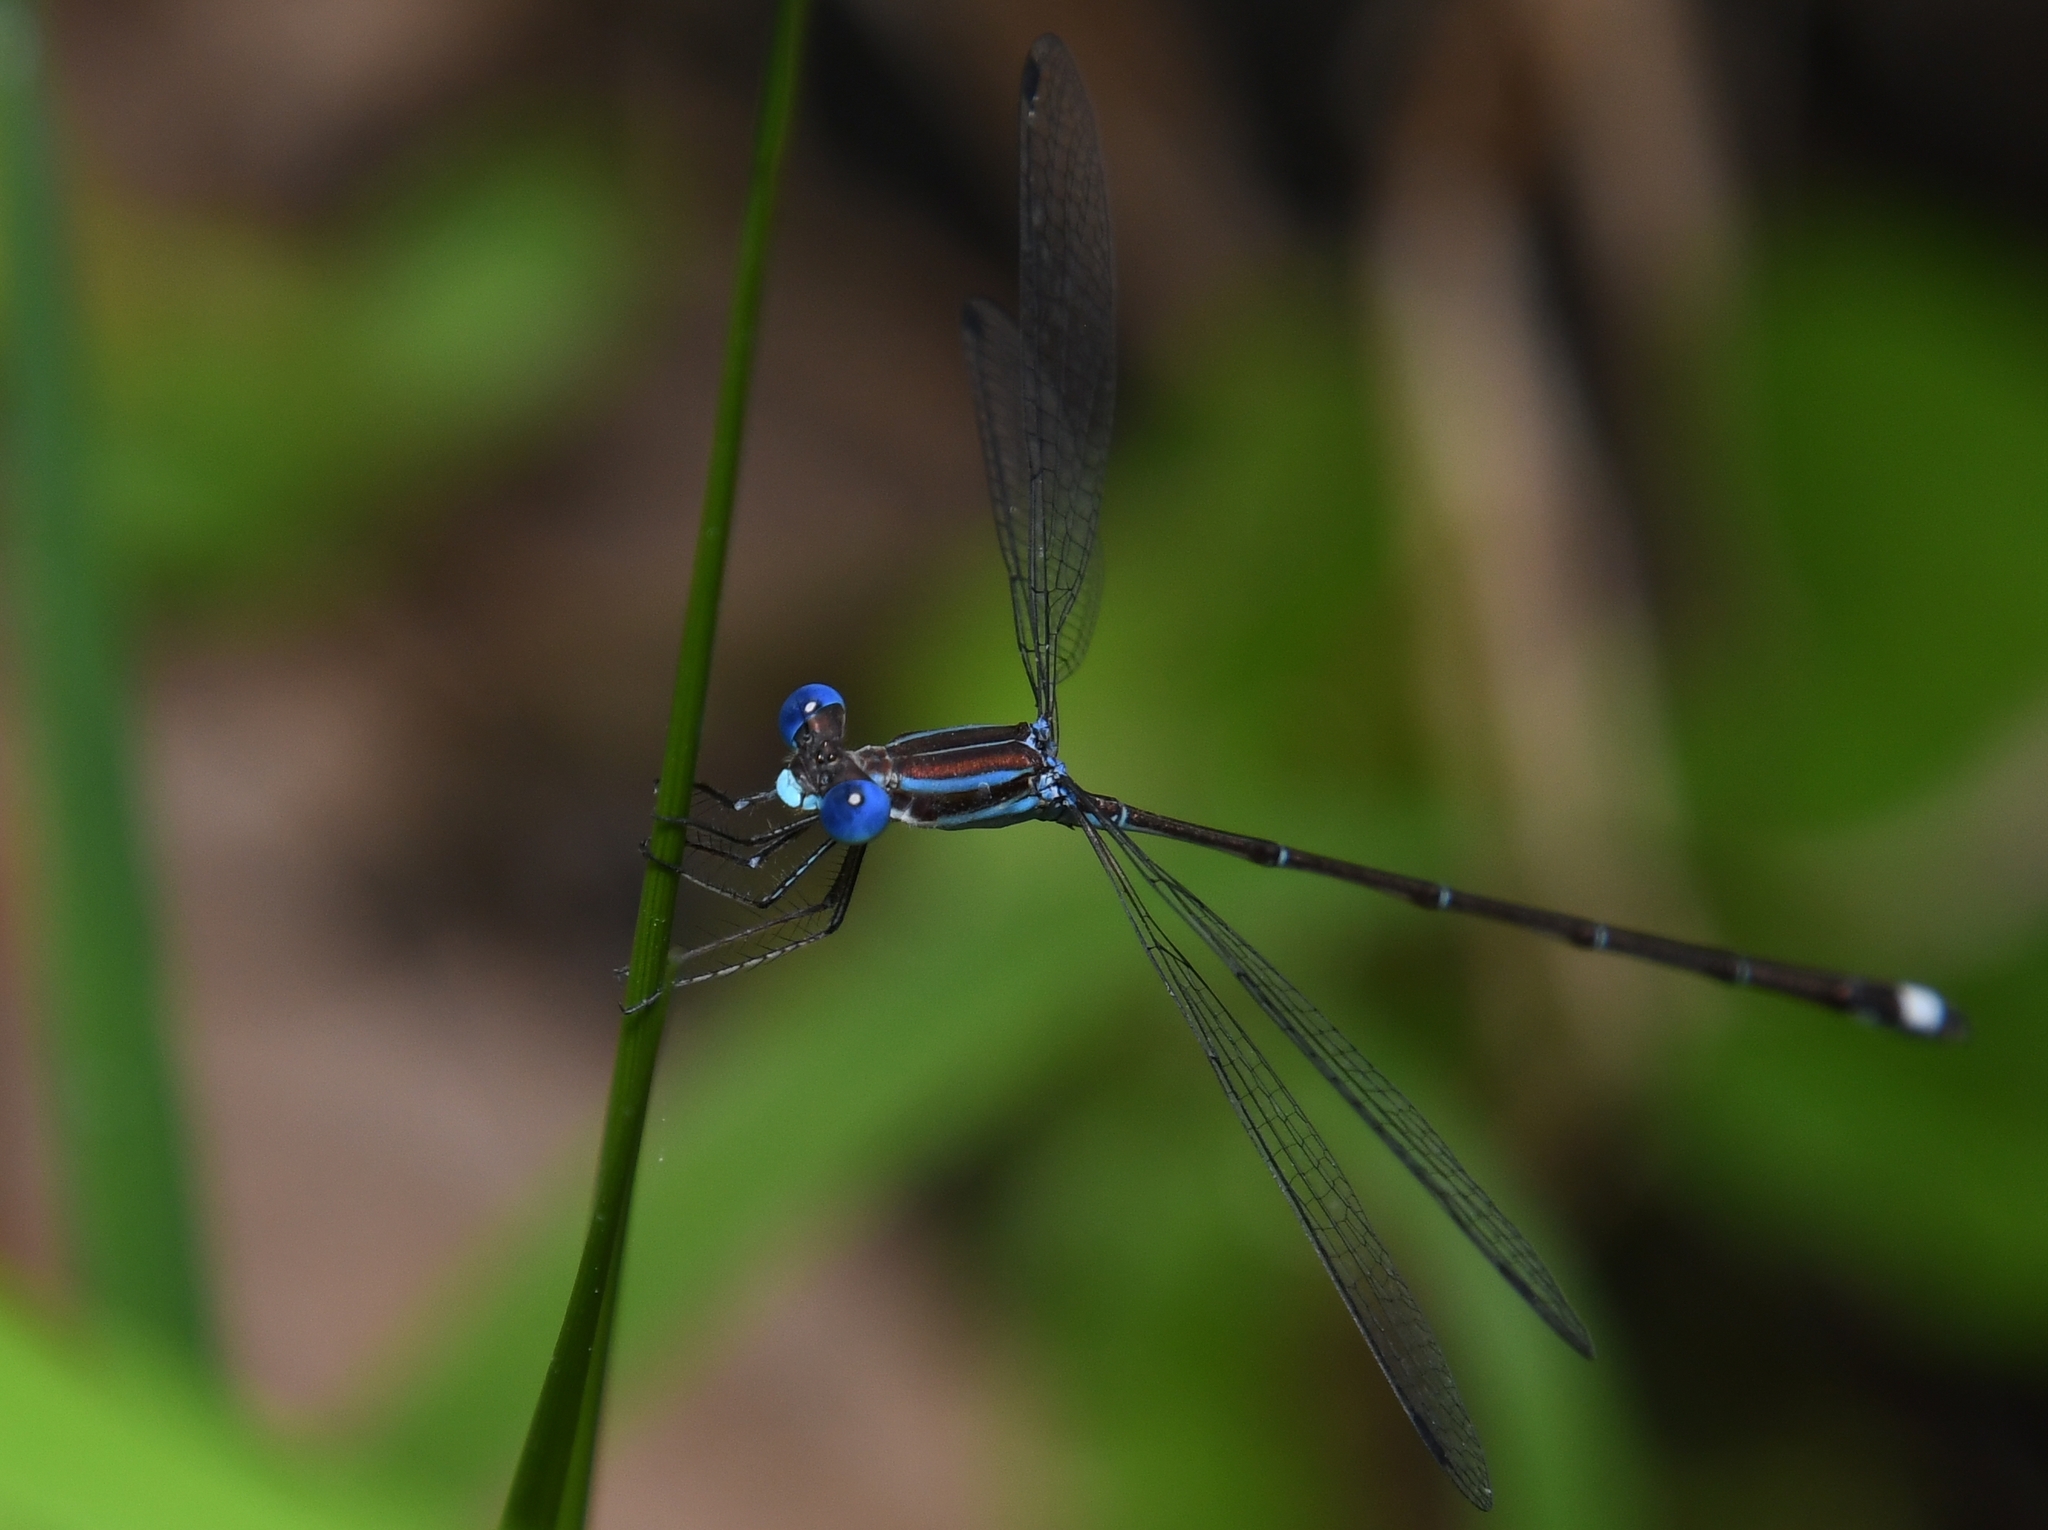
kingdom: Animalia
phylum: Arthropoda
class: Insecta
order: Odonata
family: Lestidae
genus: Lestes
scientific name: Lestes tenuatus
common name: Blue-striped spreadwing
